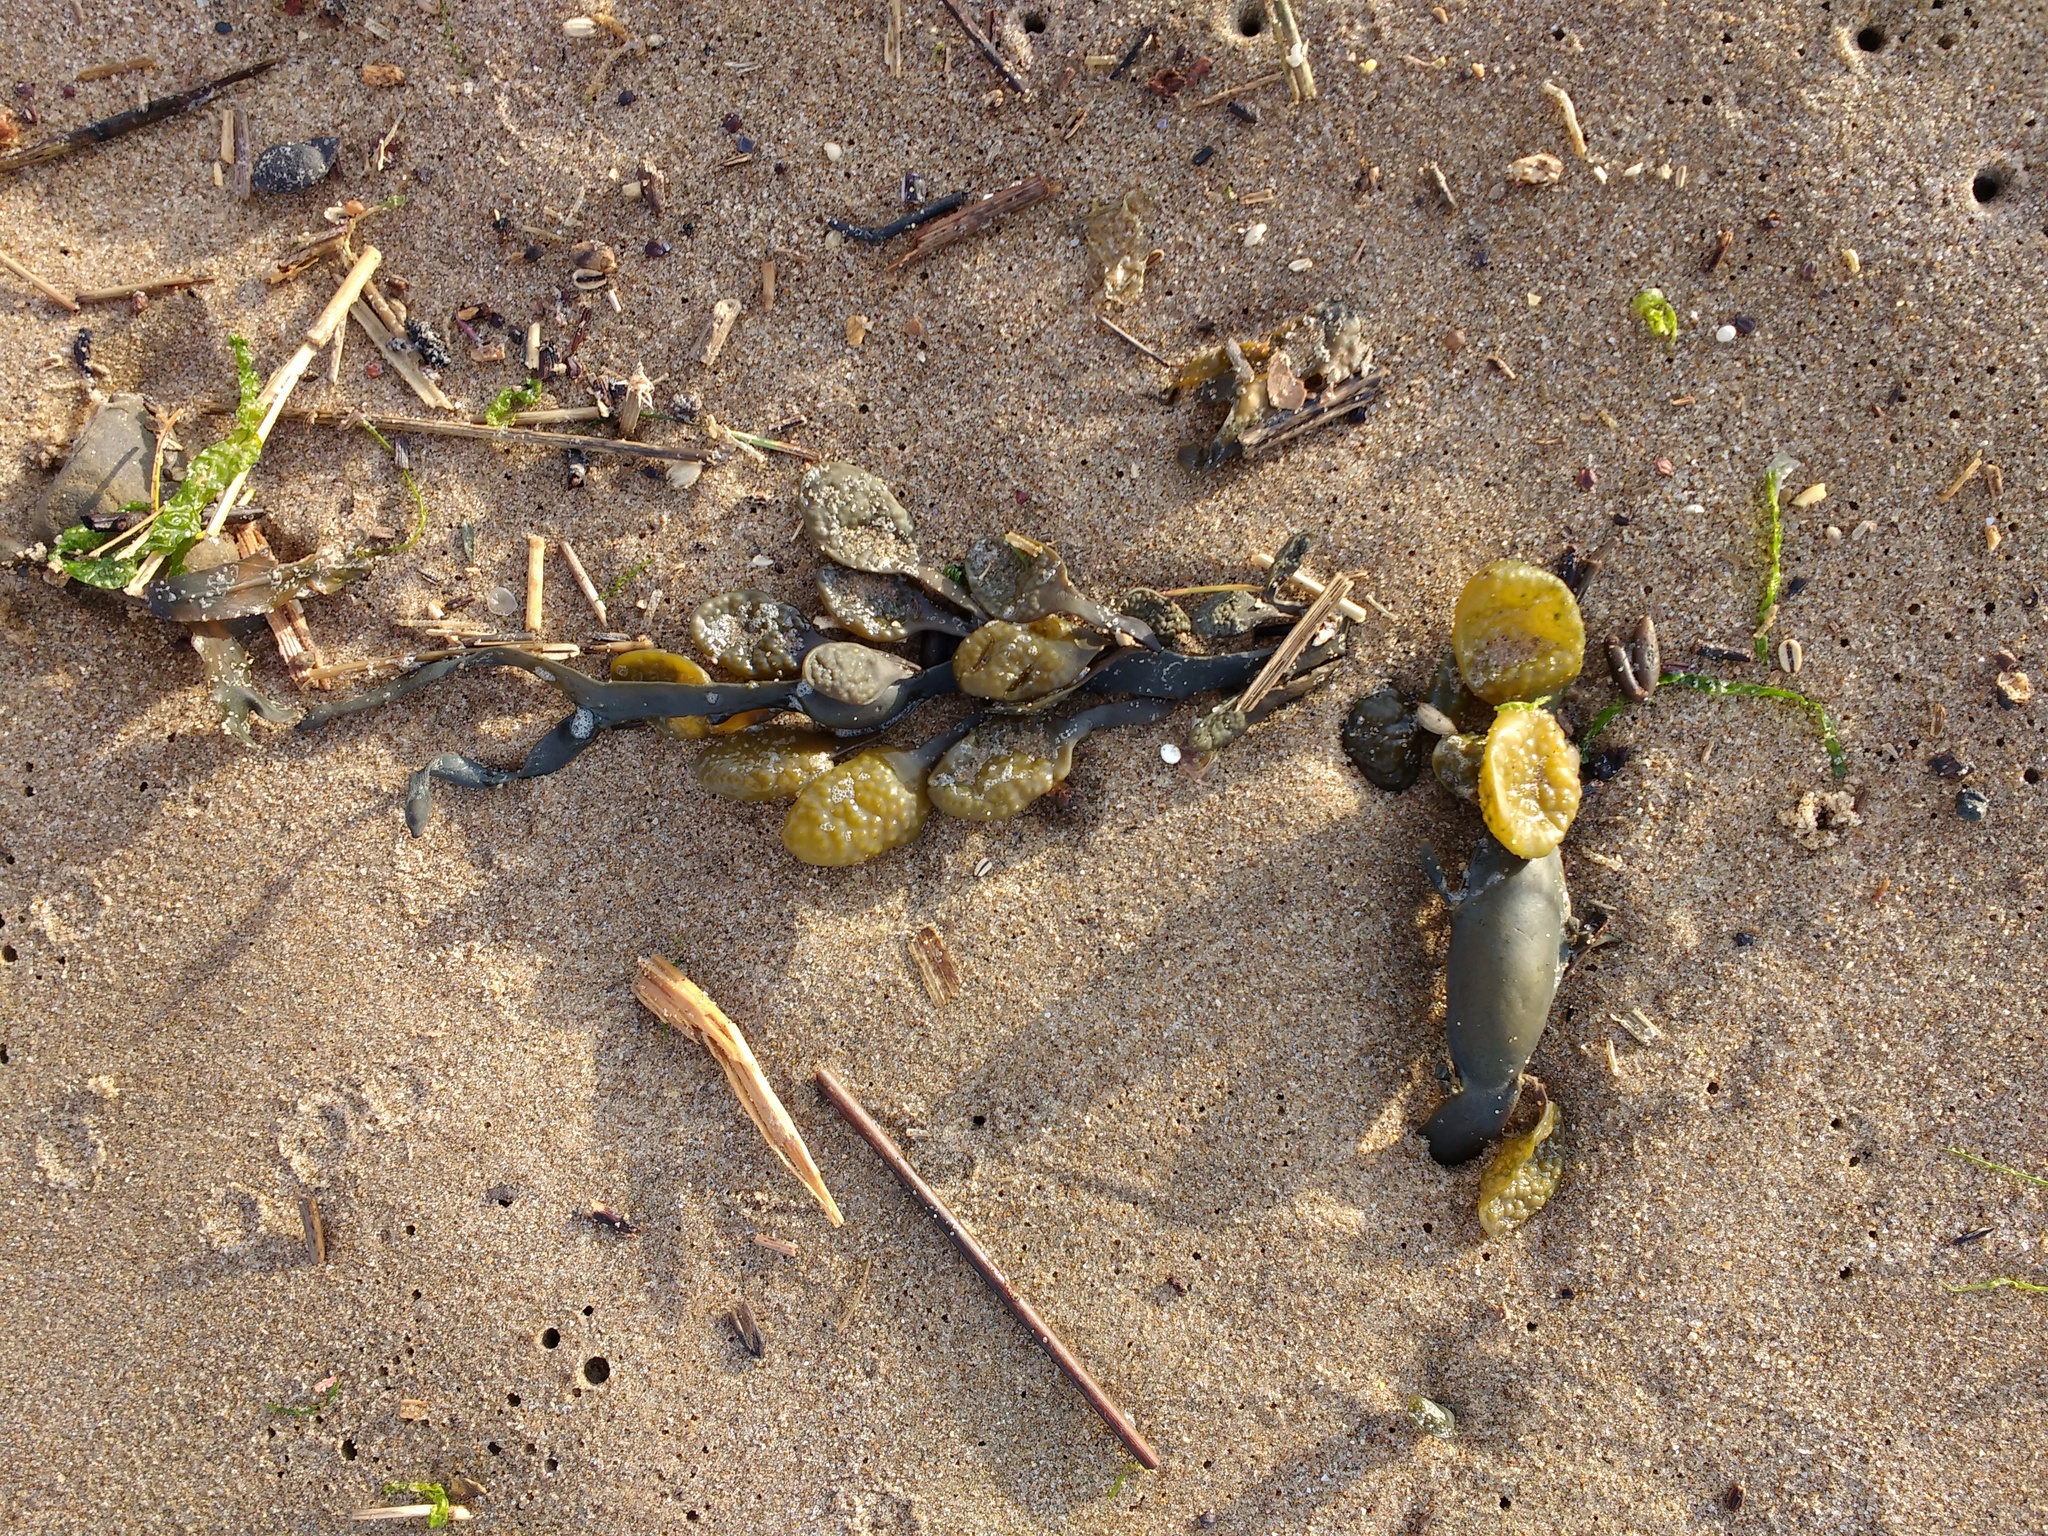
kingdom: Chromista
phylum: Ochrophyta
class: Phaeophyceae
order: Fucales
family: Fucaceae
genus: Ascophyllum
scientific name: Ascophyllum nodosum
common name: Knotted wrack
